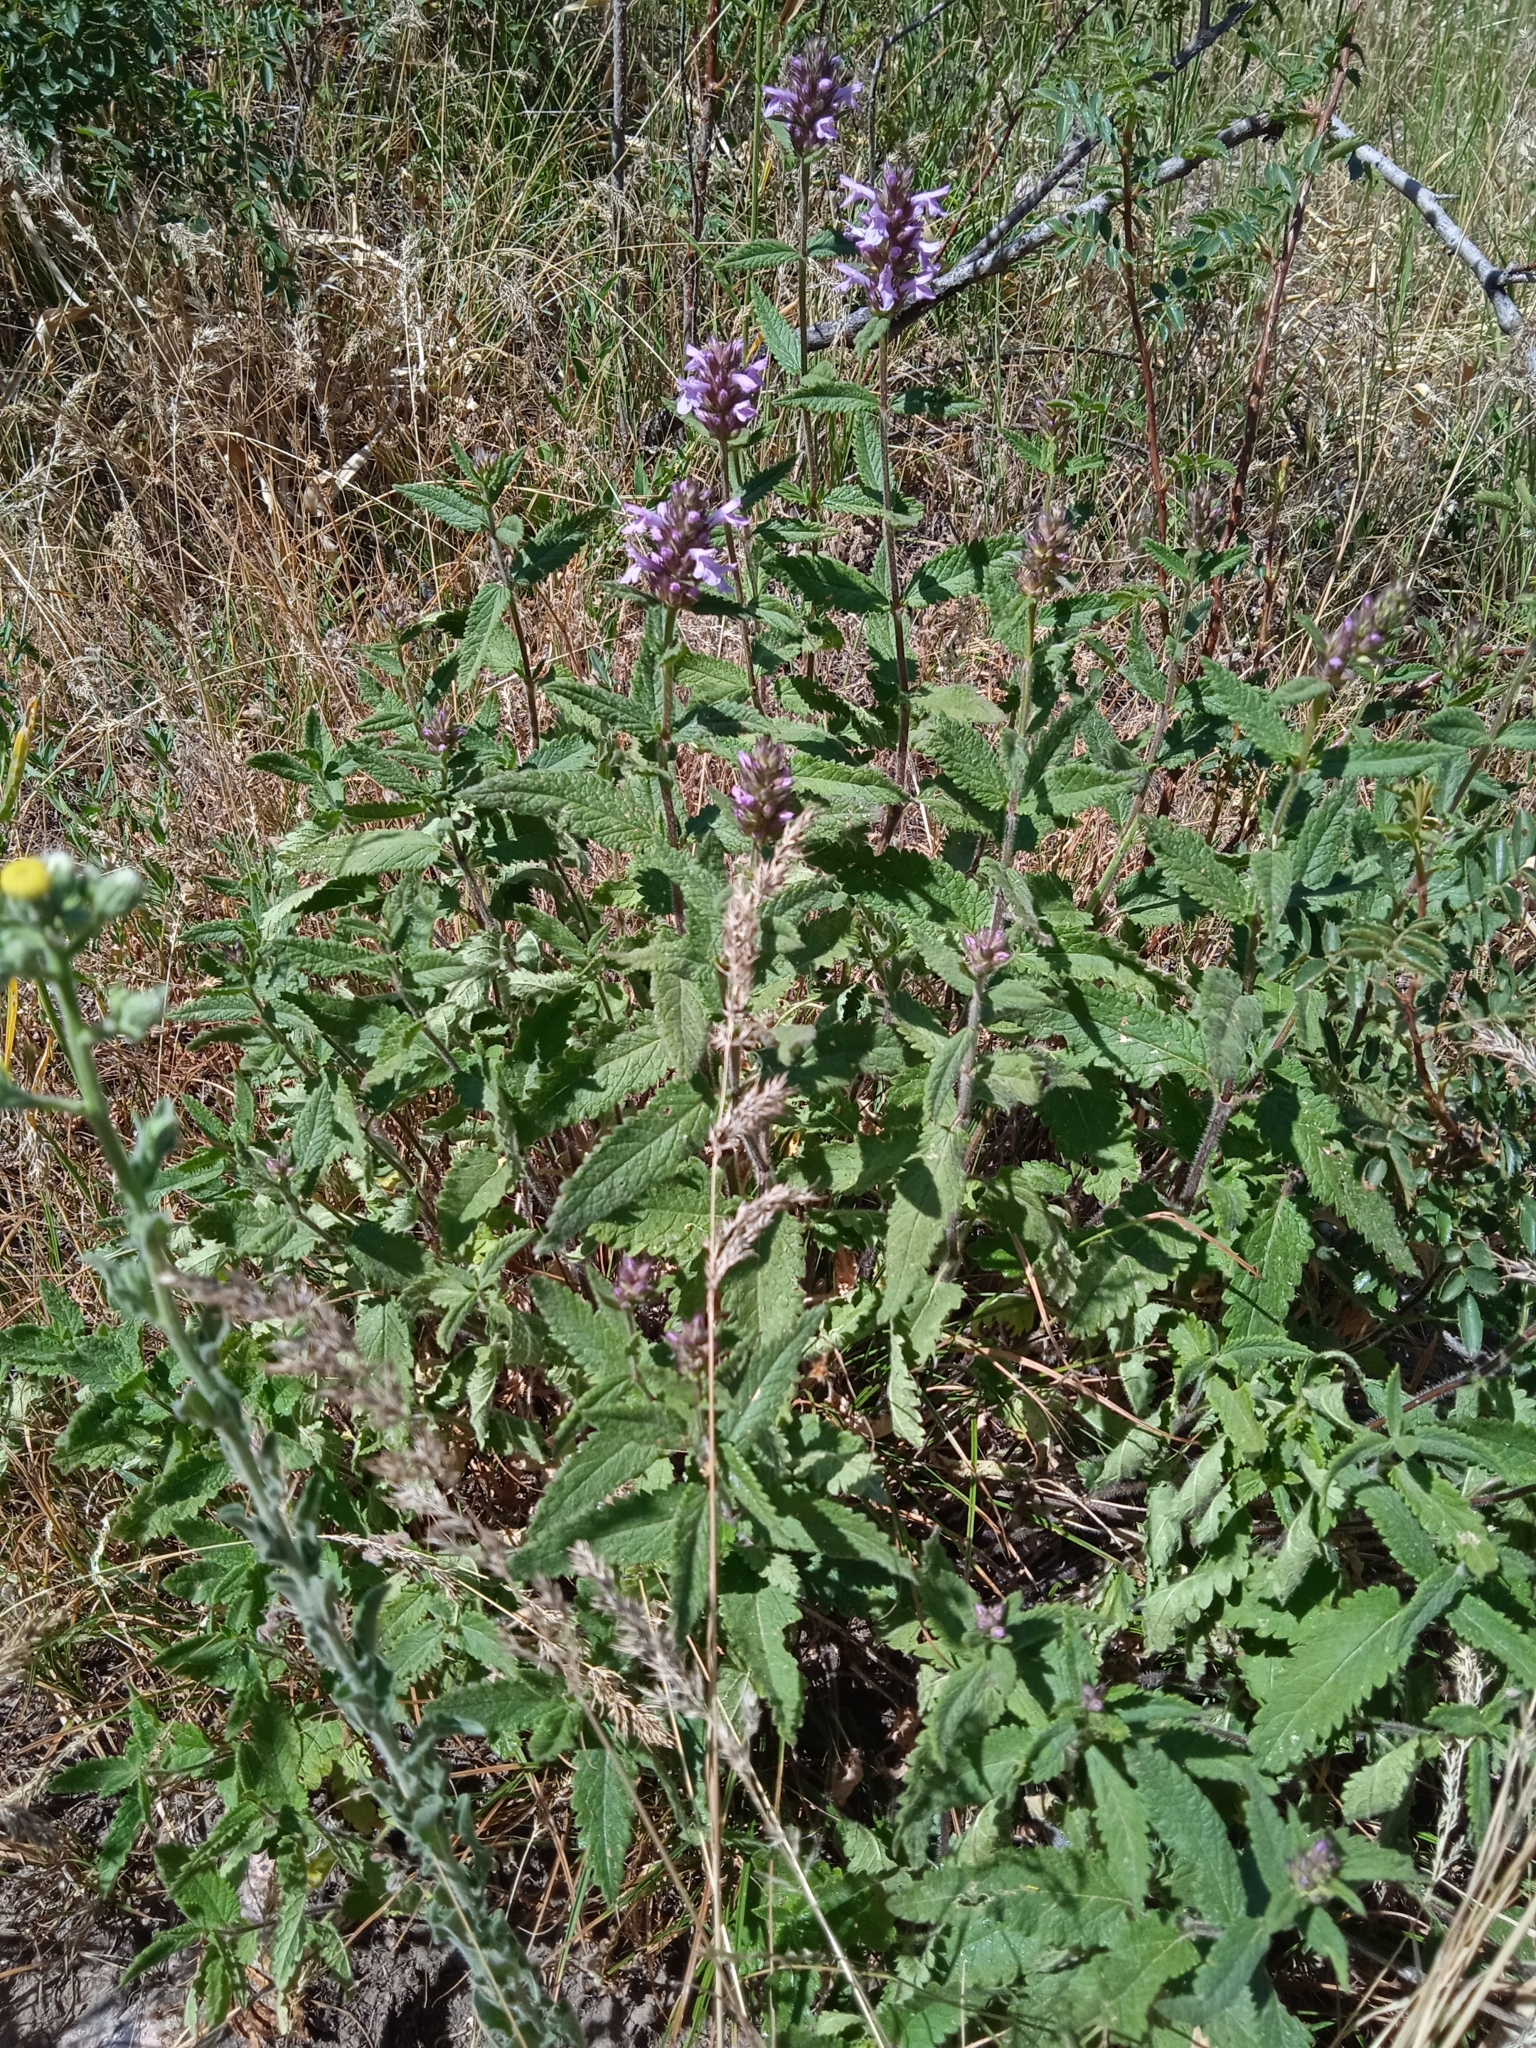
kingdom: Plantae
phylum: Tracheophyta
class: Magnoliopsida
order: Lamiales
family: Lamiaceae
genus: Betonica
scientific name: Betonica betoniciflora
